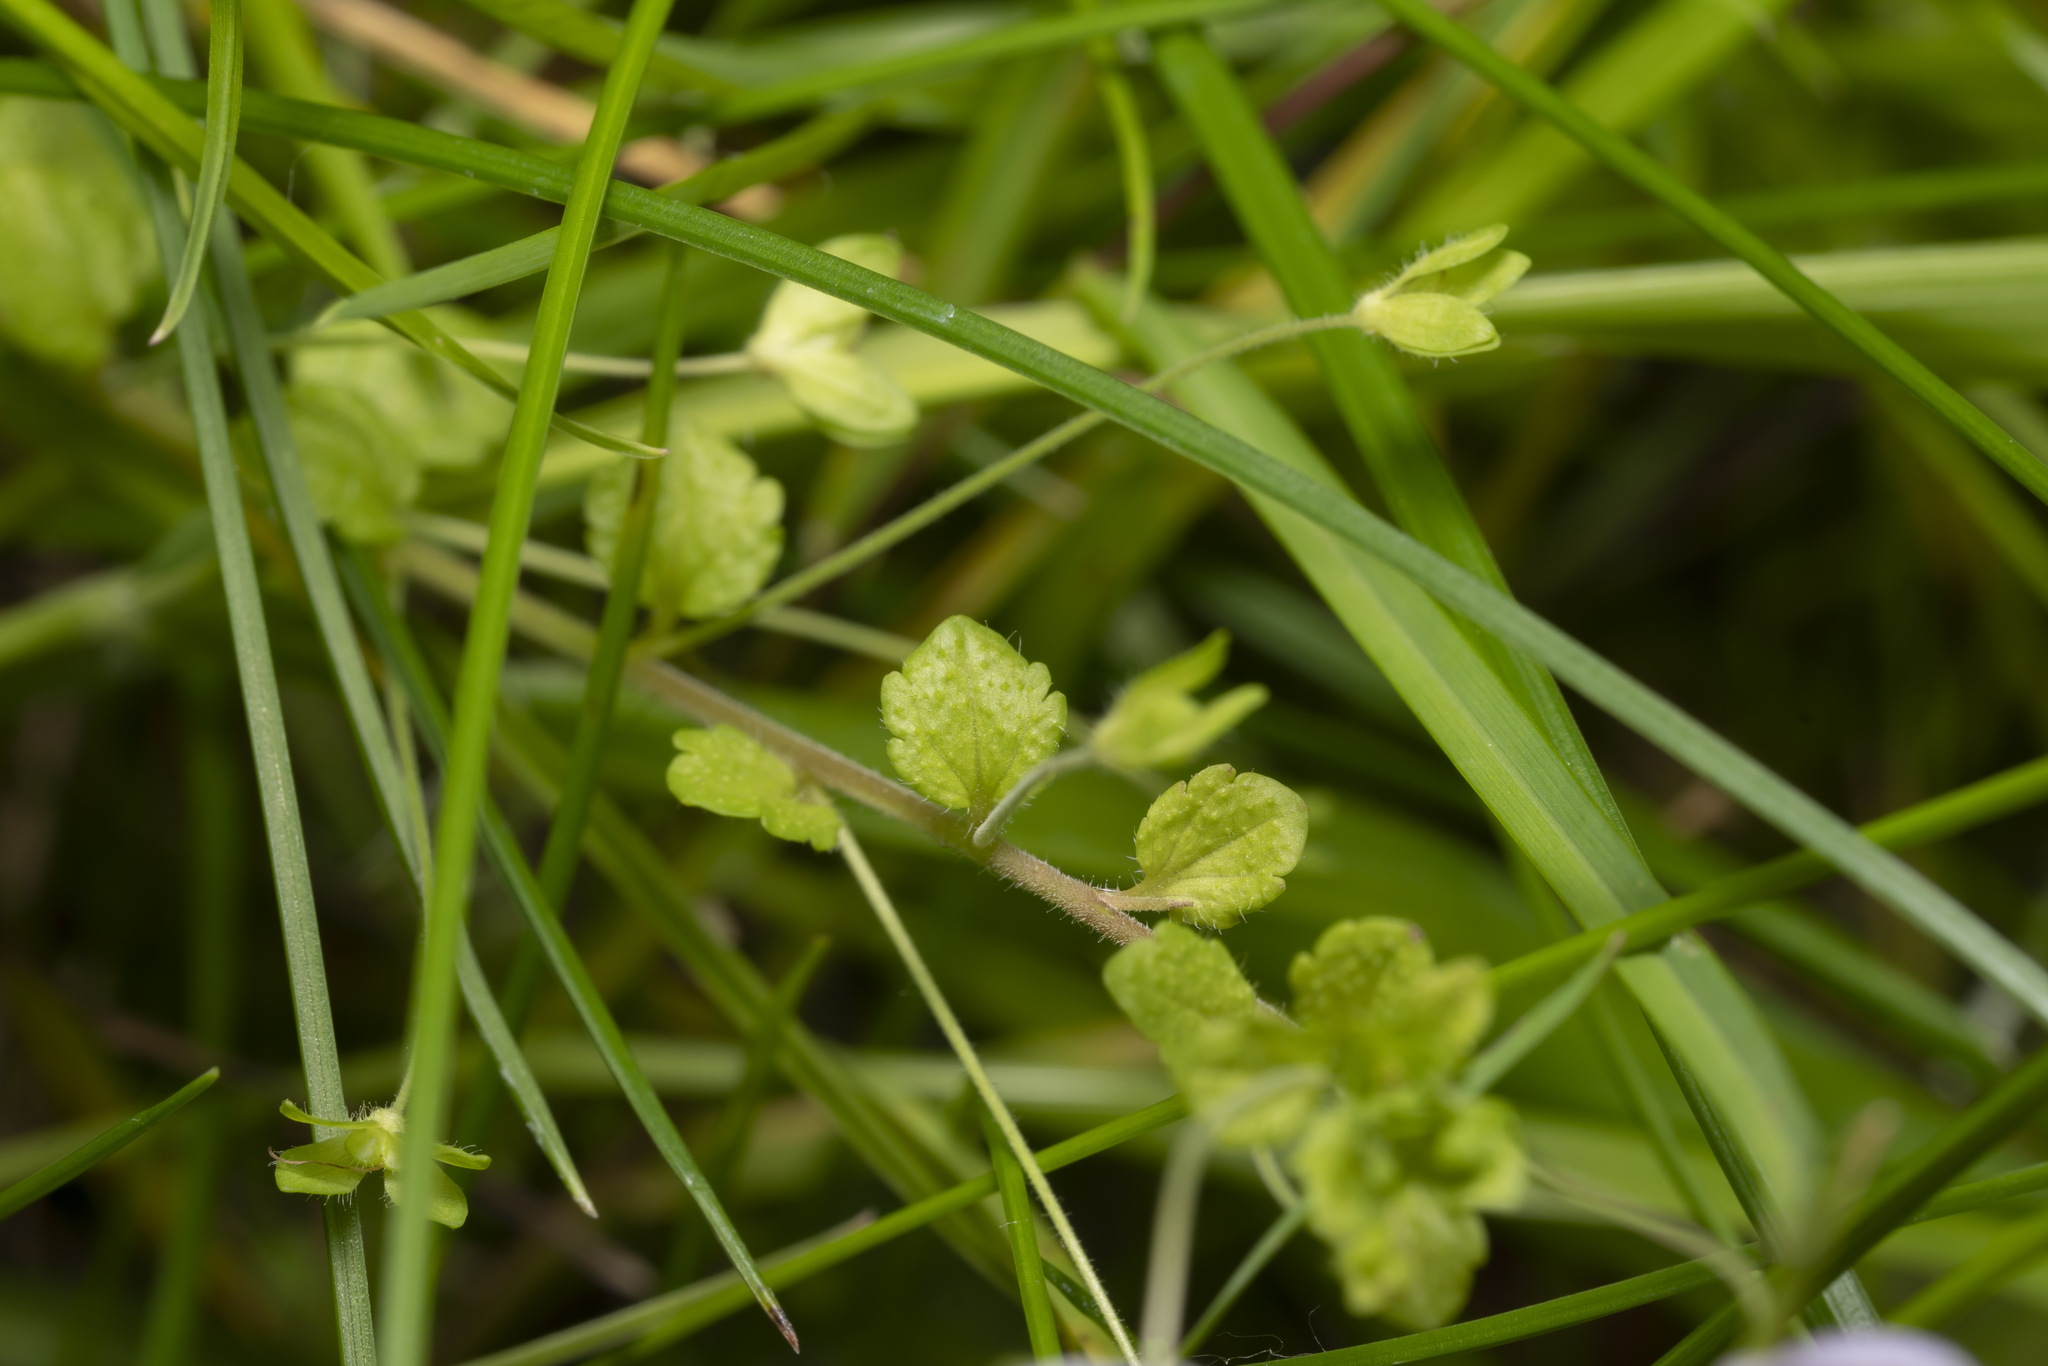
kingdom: Plantae
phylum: Tracheophyta
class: Magnoliopsida
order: Lamiales
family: Plantaginaceae
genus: Veronica
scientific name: Veronica filiformis
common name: Slender speedwell
